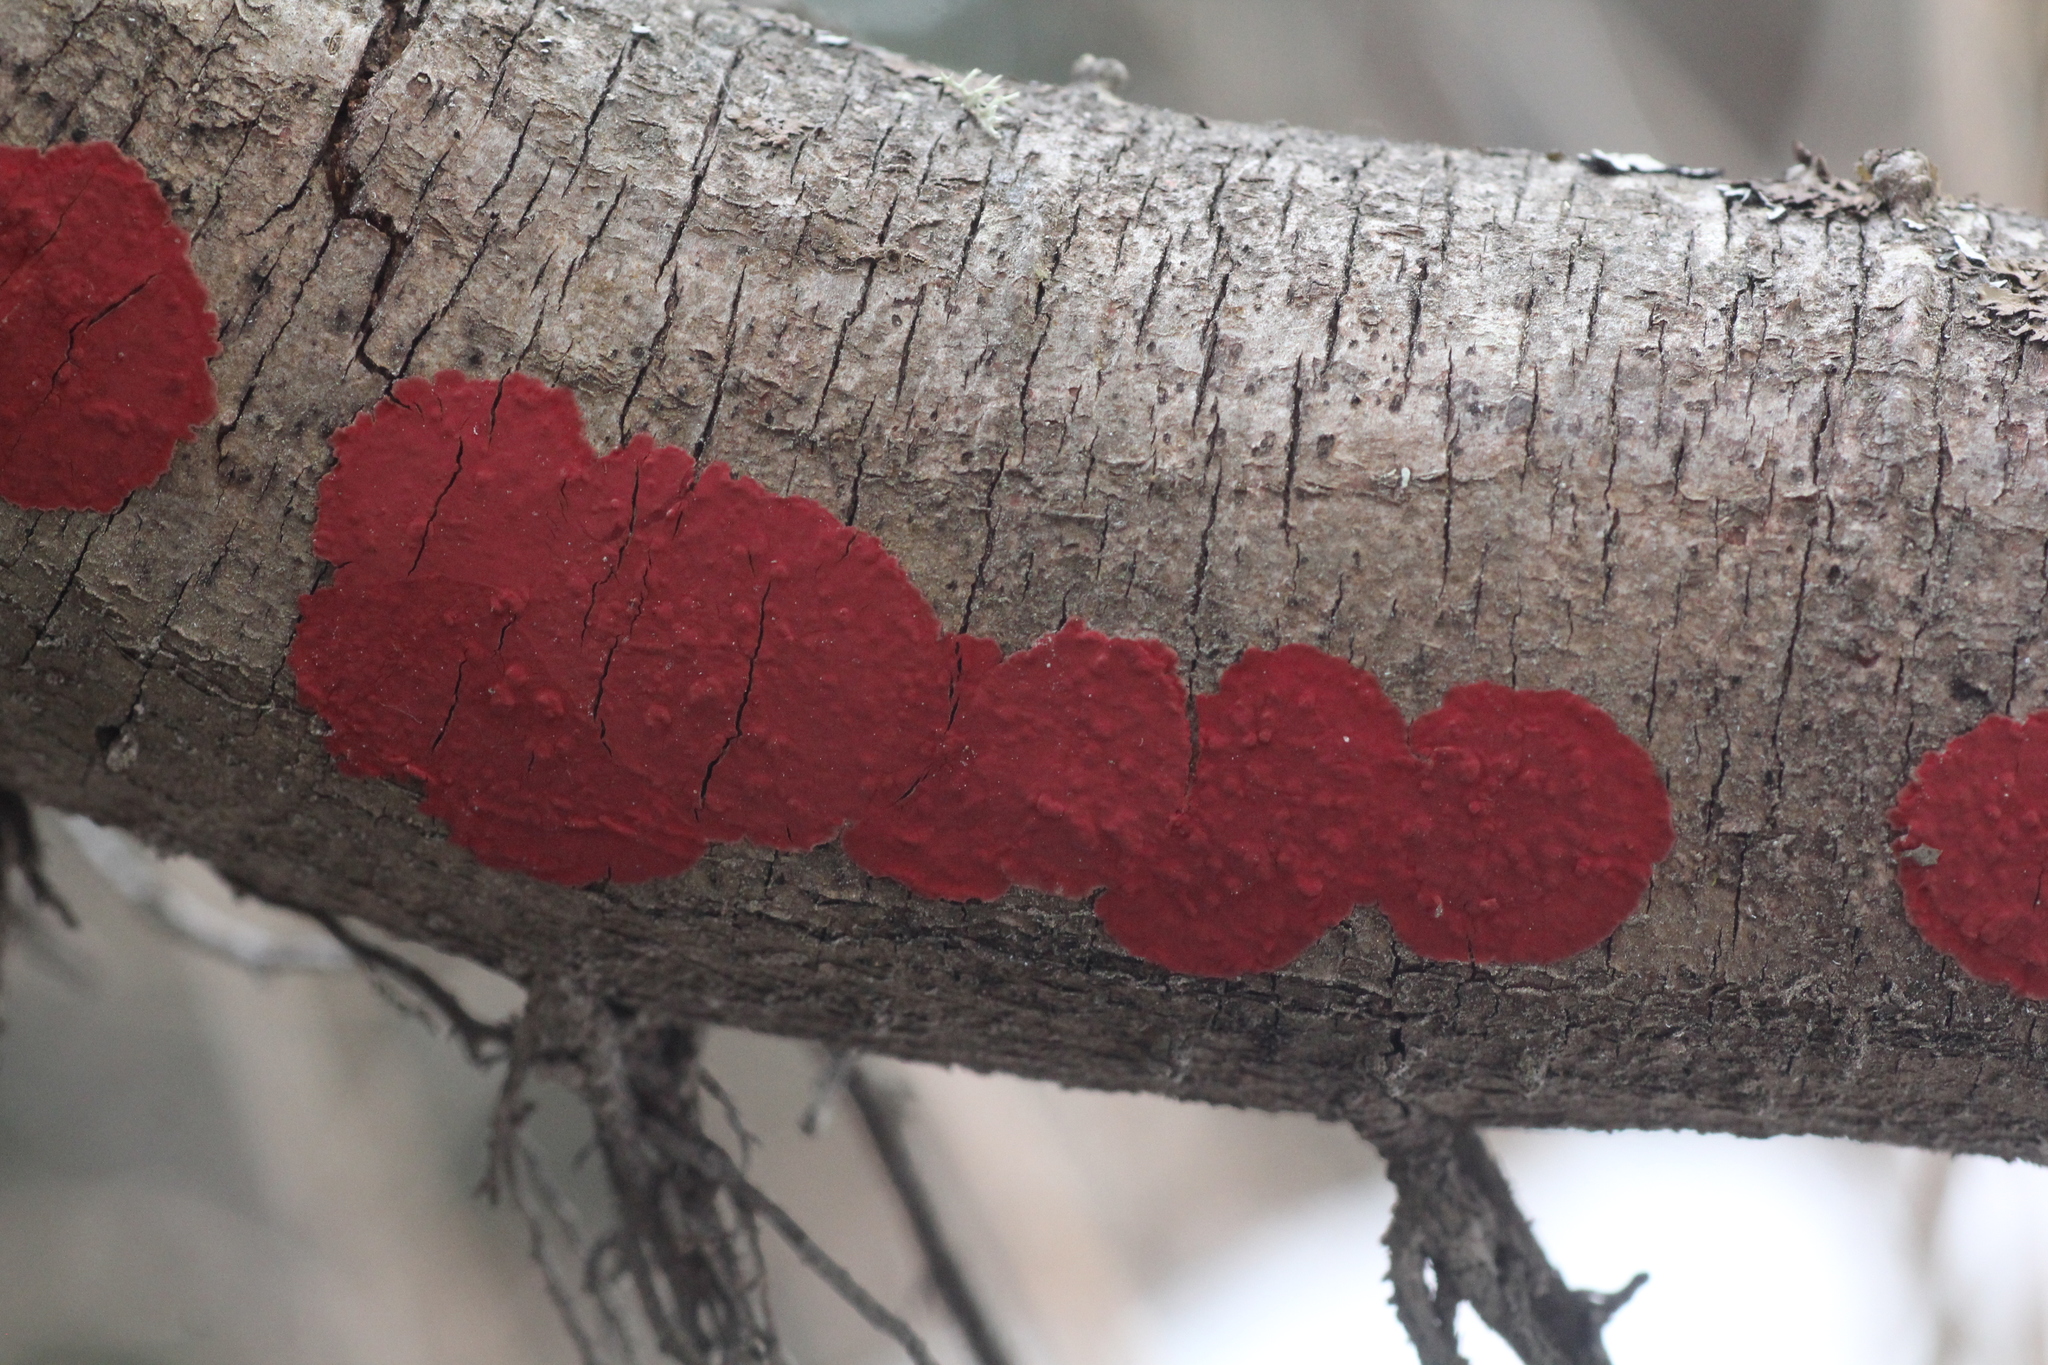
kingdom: Fungi
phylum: Basidiomycota
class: Agaricomycetes
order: Hymenochaetales
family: Hymenochaetaceae
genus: Hymenochaete
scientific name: Hymenochaete cruenta
